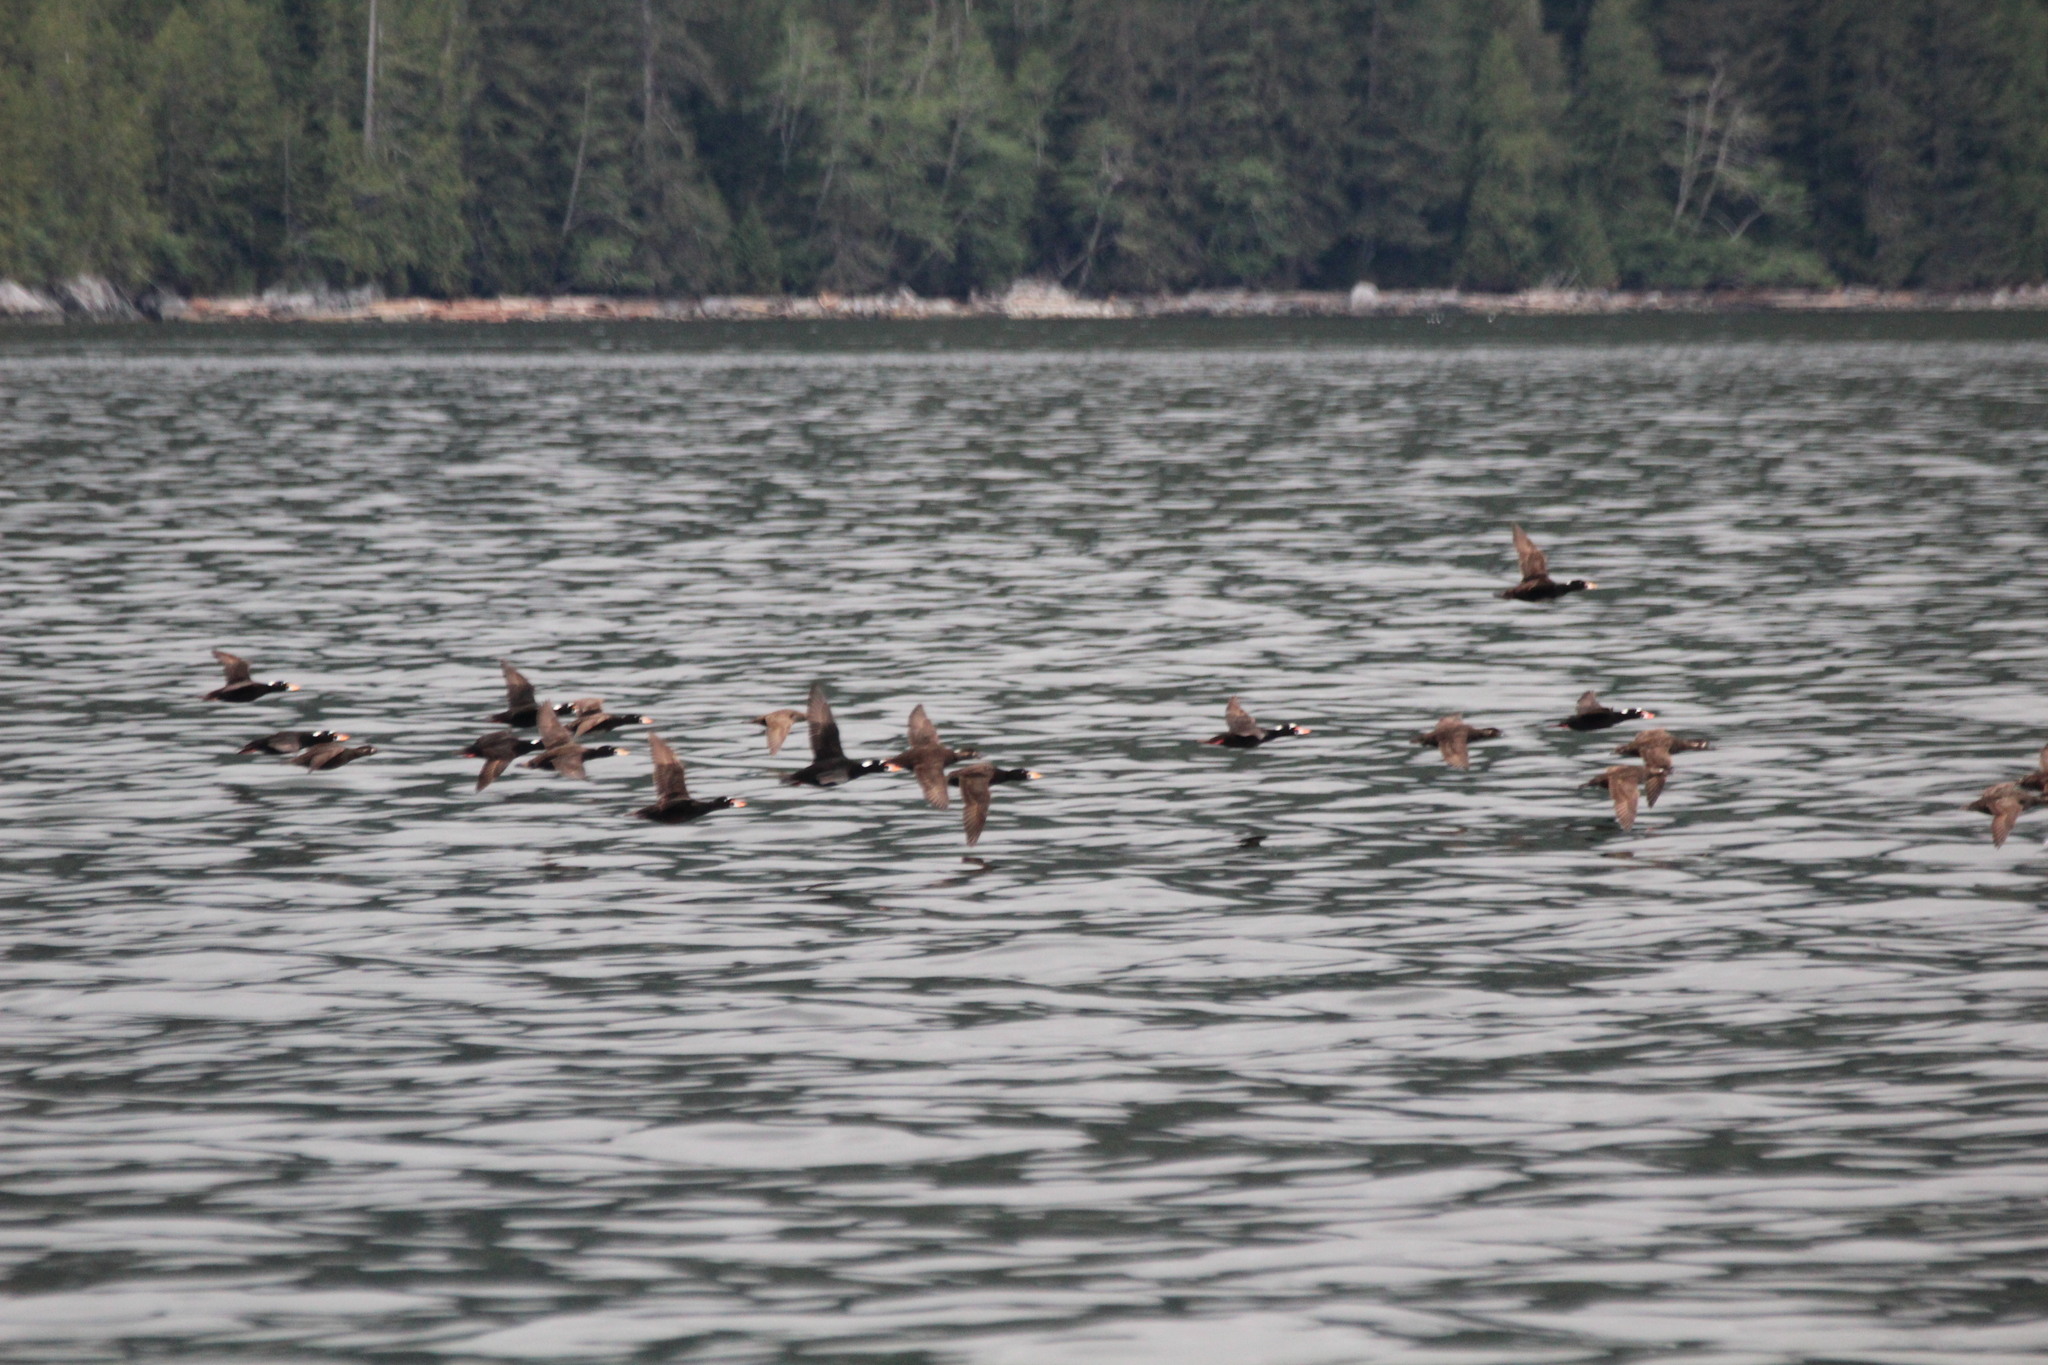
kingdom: Animalia
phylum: Chordata
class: Aves
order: Anseriformes
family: Anatidae
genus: Melanitta
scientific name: Melanitta perspicillata
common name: Surf scoter
